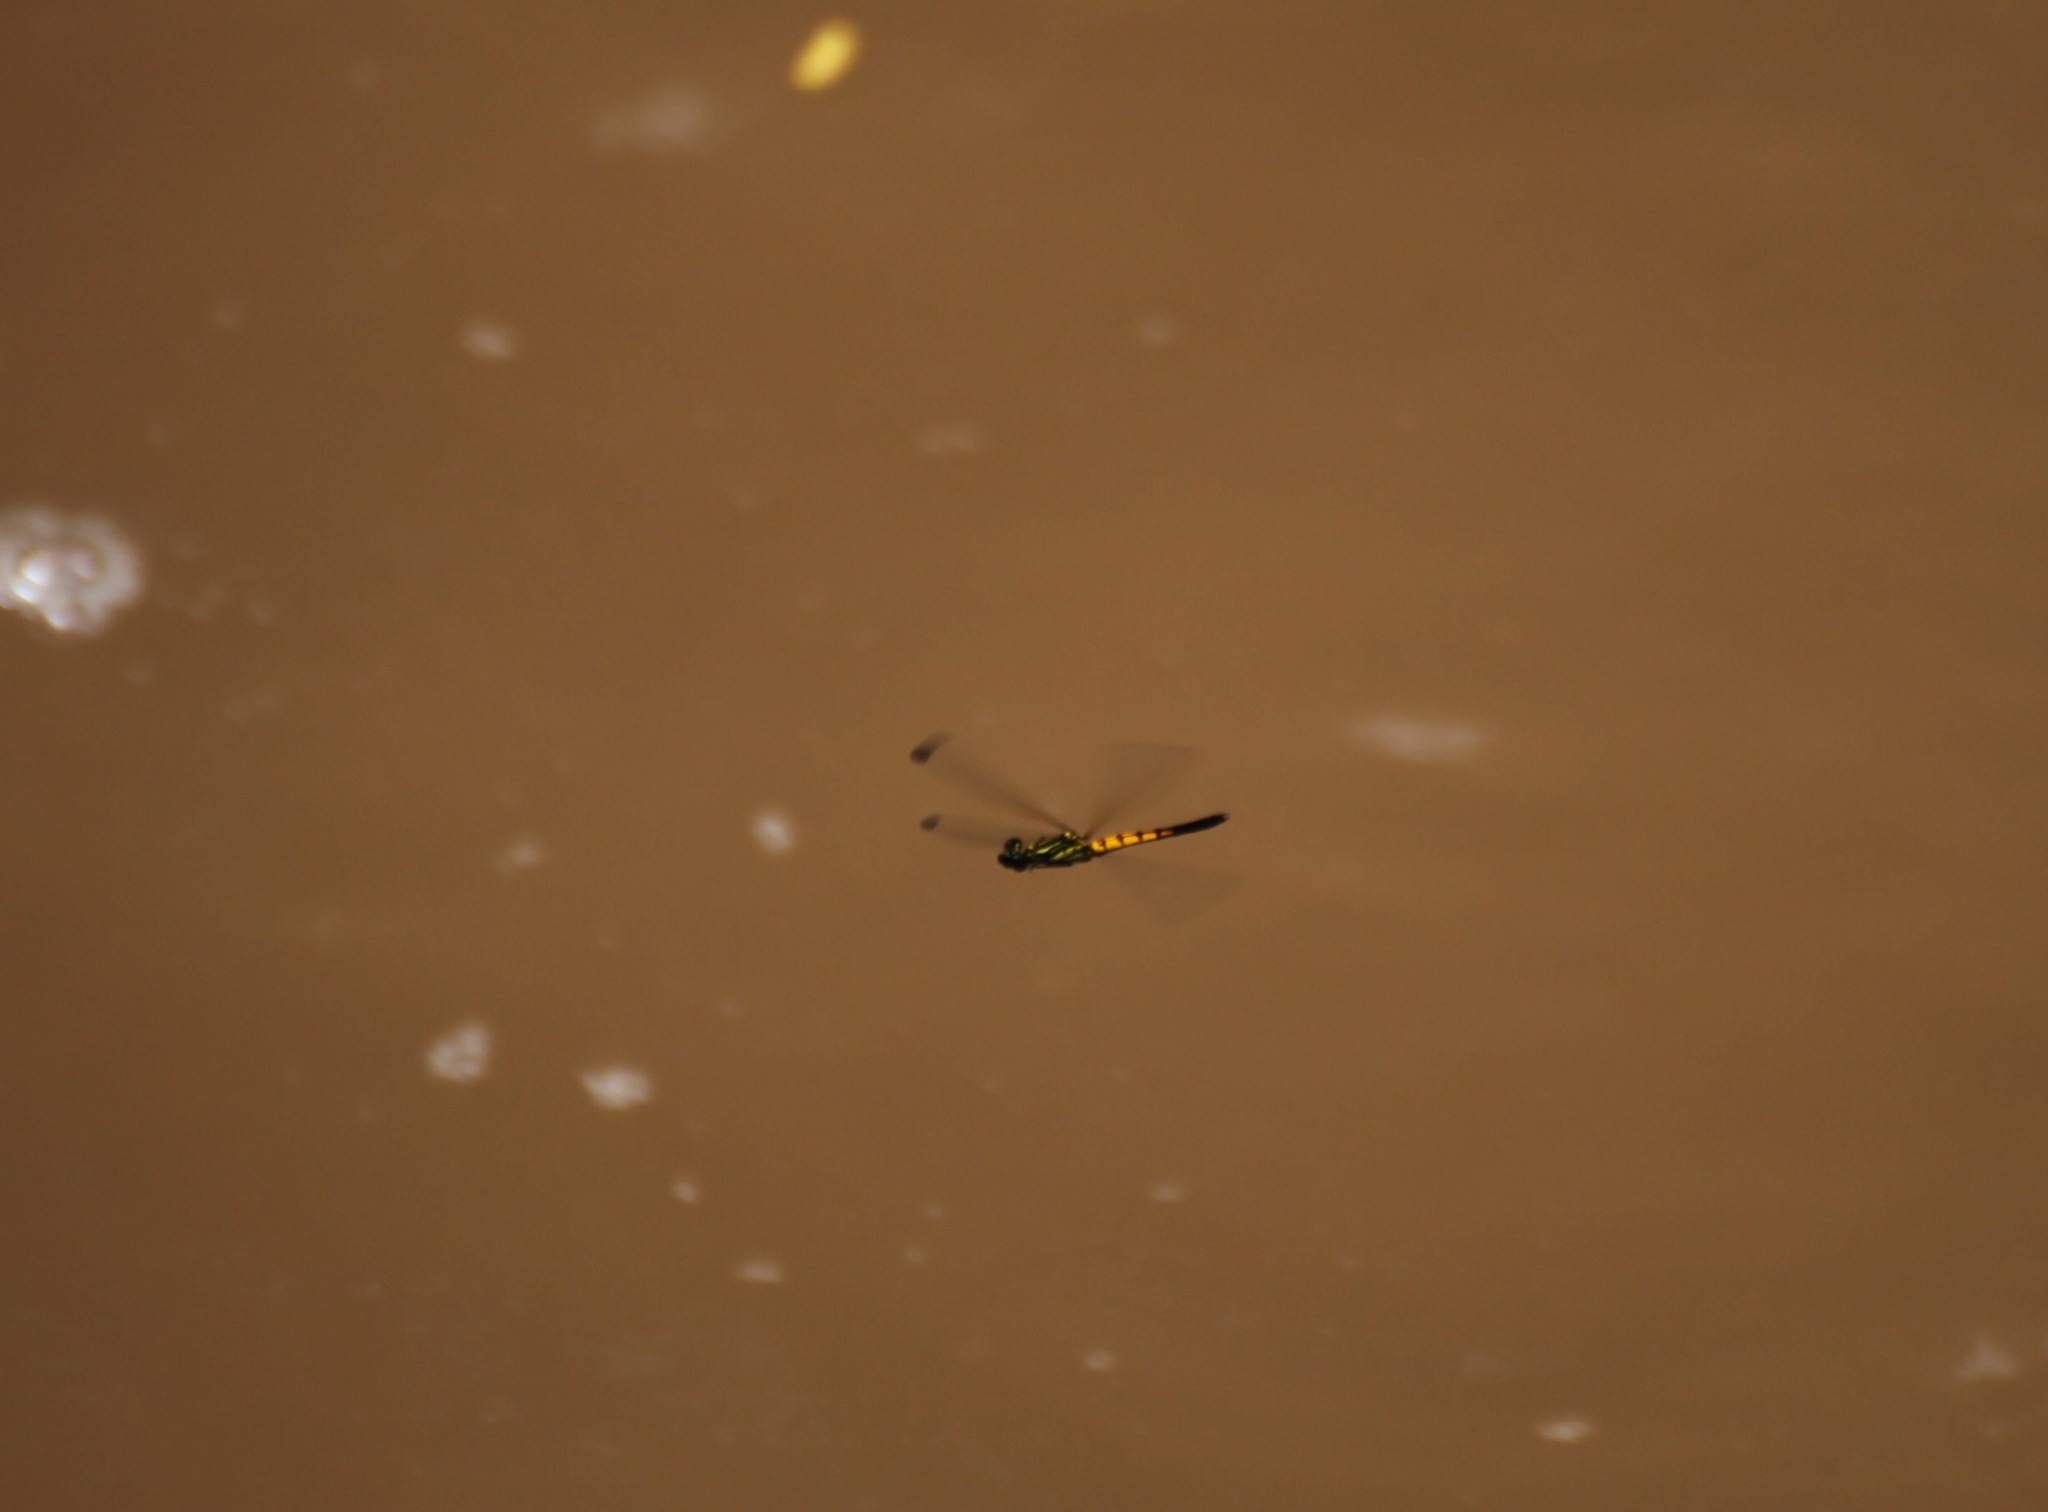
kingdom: Animalia
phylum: Arthropoda
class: Insecta
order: Odonata
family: Chlorocyphidae
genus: Libellago
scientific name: Libellago lineata
